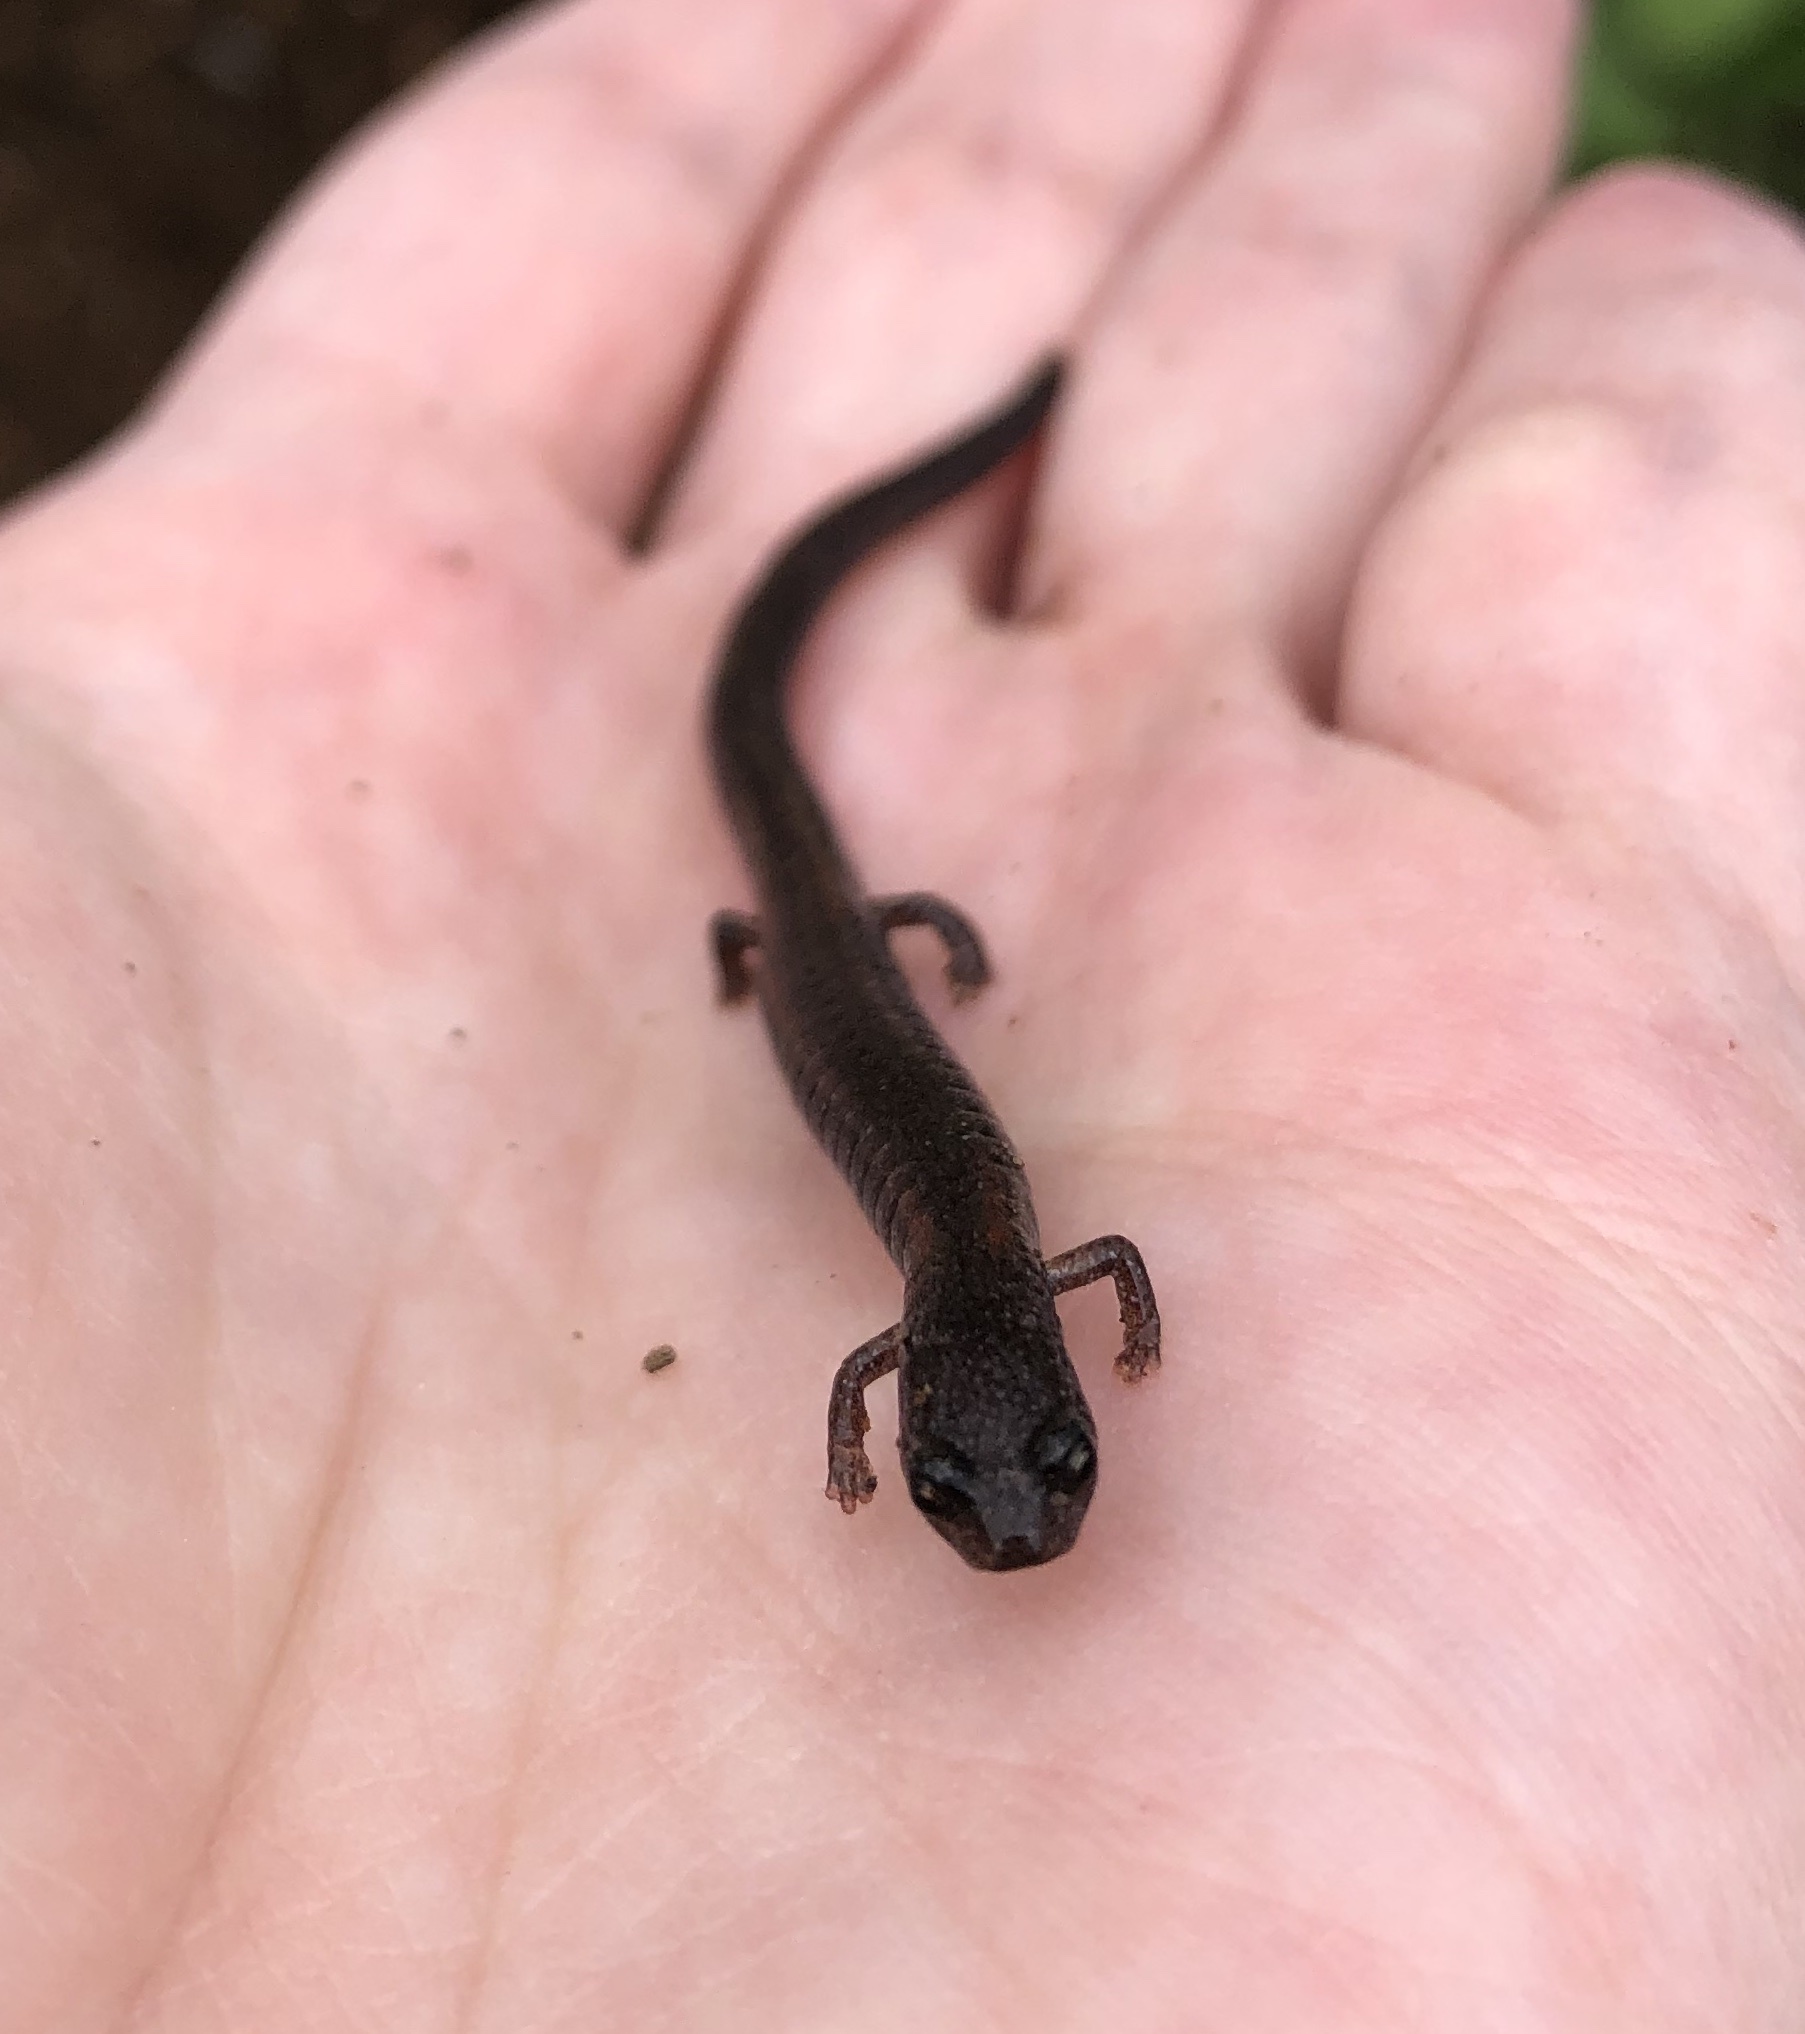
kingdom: Animalia
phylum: Chordata
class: Amphibia
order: Caudata
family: Plethodontidae
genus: Batrachoseps
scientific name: Batrachoseps major
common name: Garden slender salamander
